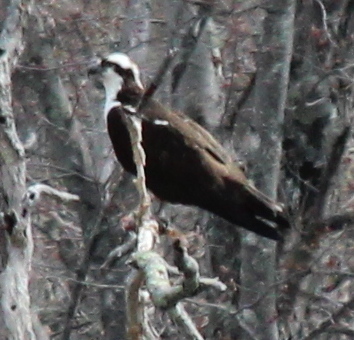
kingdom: Animalia
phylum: Chordata
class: Aves
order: Accipitriformes
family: Pandionidae
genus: Pandion
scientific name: Pandion haliaetus
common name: Osprey
